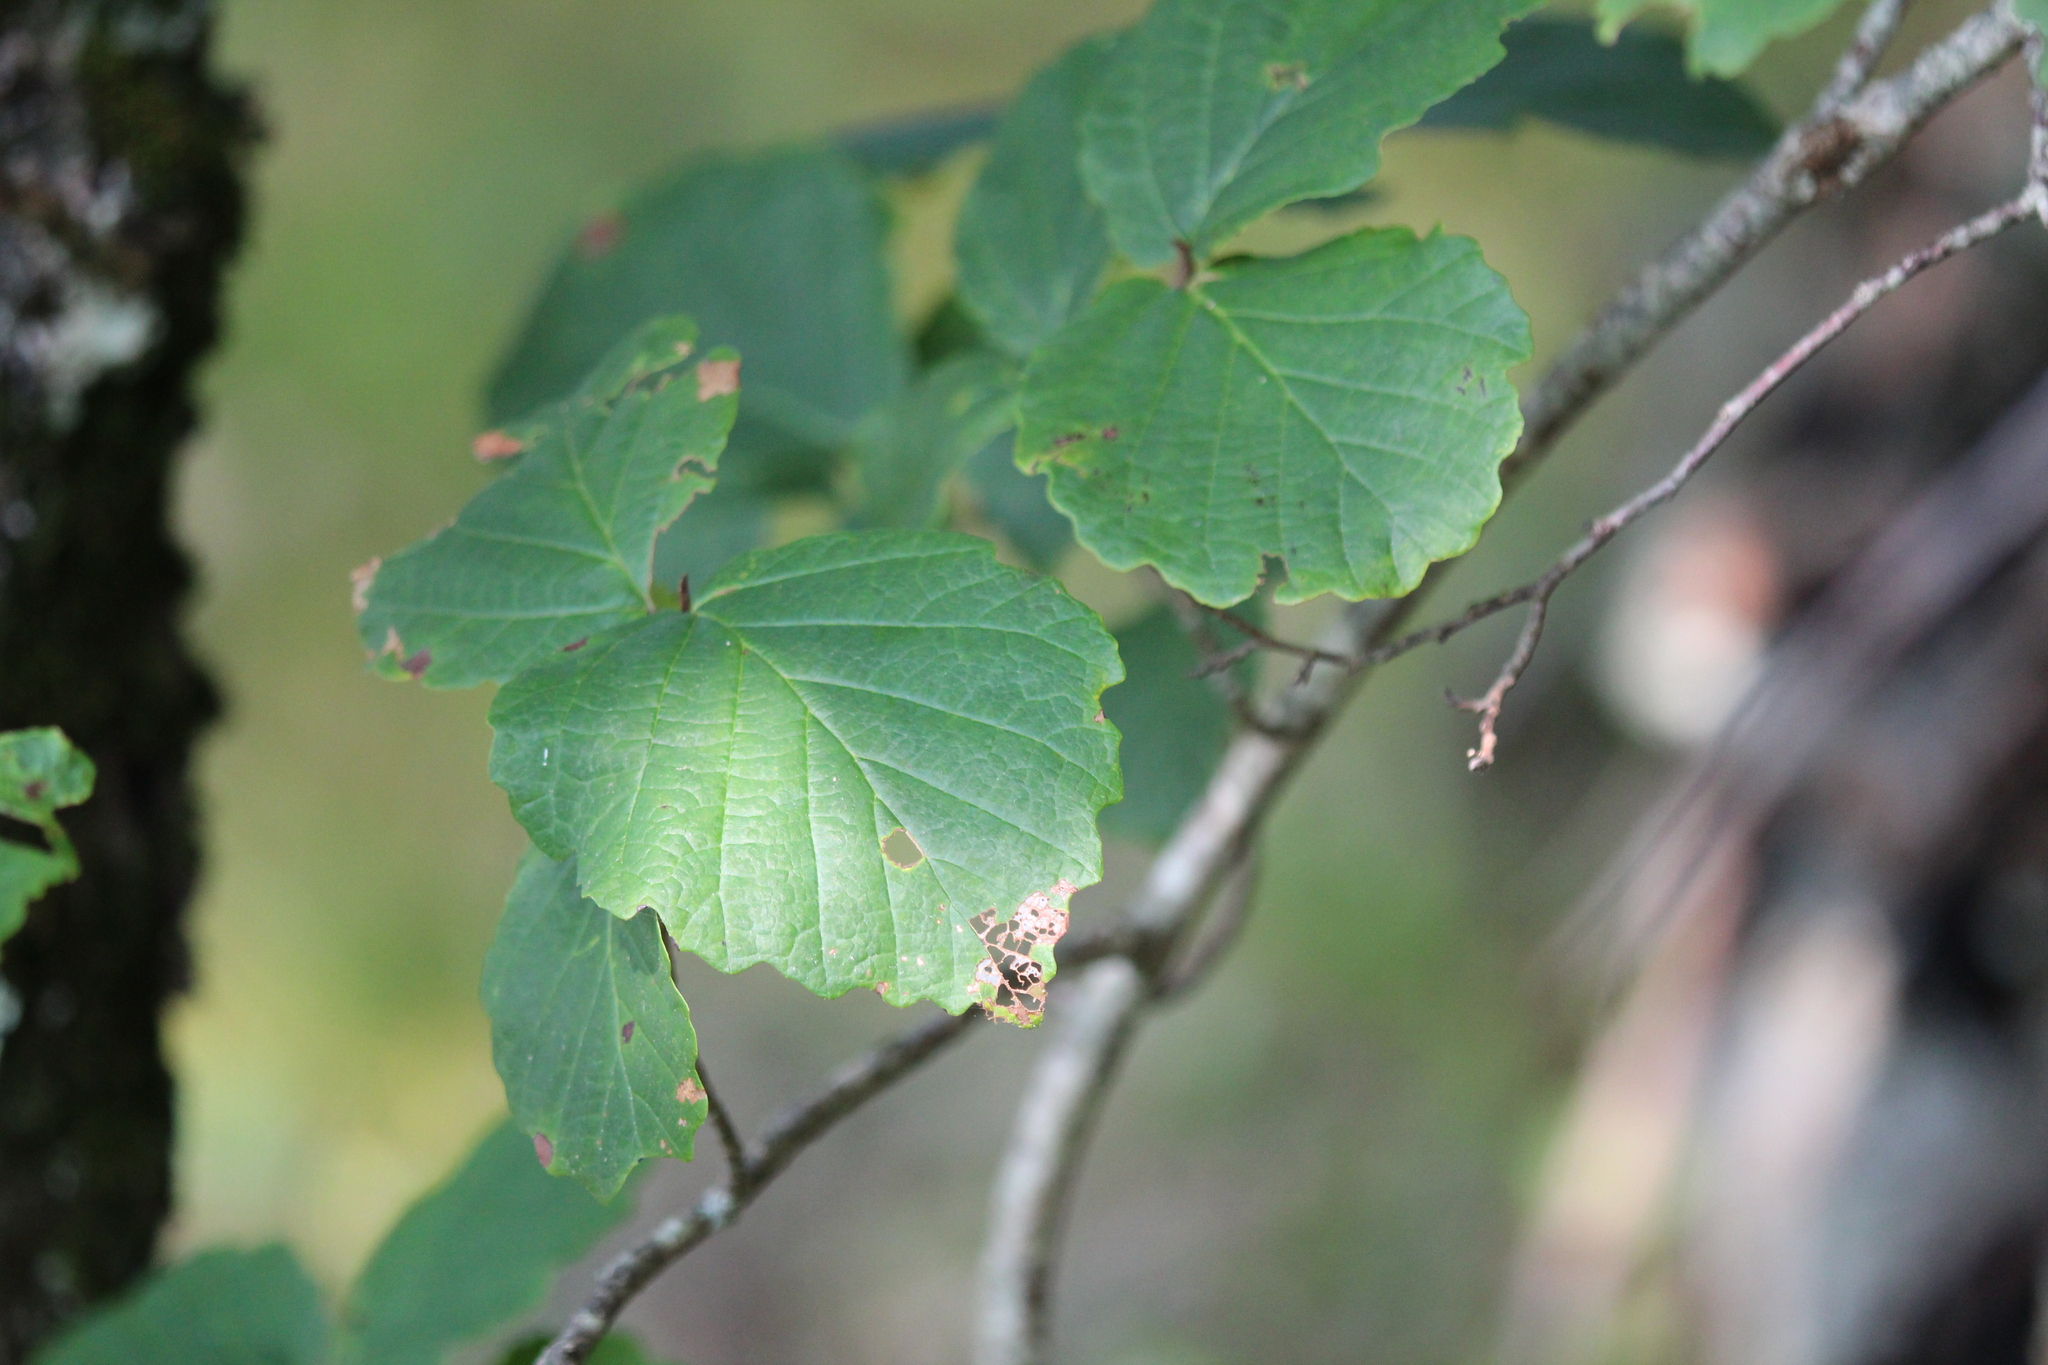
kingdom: Plantae
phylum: Tracheophyta
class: Magnoliopsida
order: Saxifragales
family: Hamamelidaceae
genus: Hamamelis
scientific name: Hamamelis virginiana
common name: Witch-hazel
